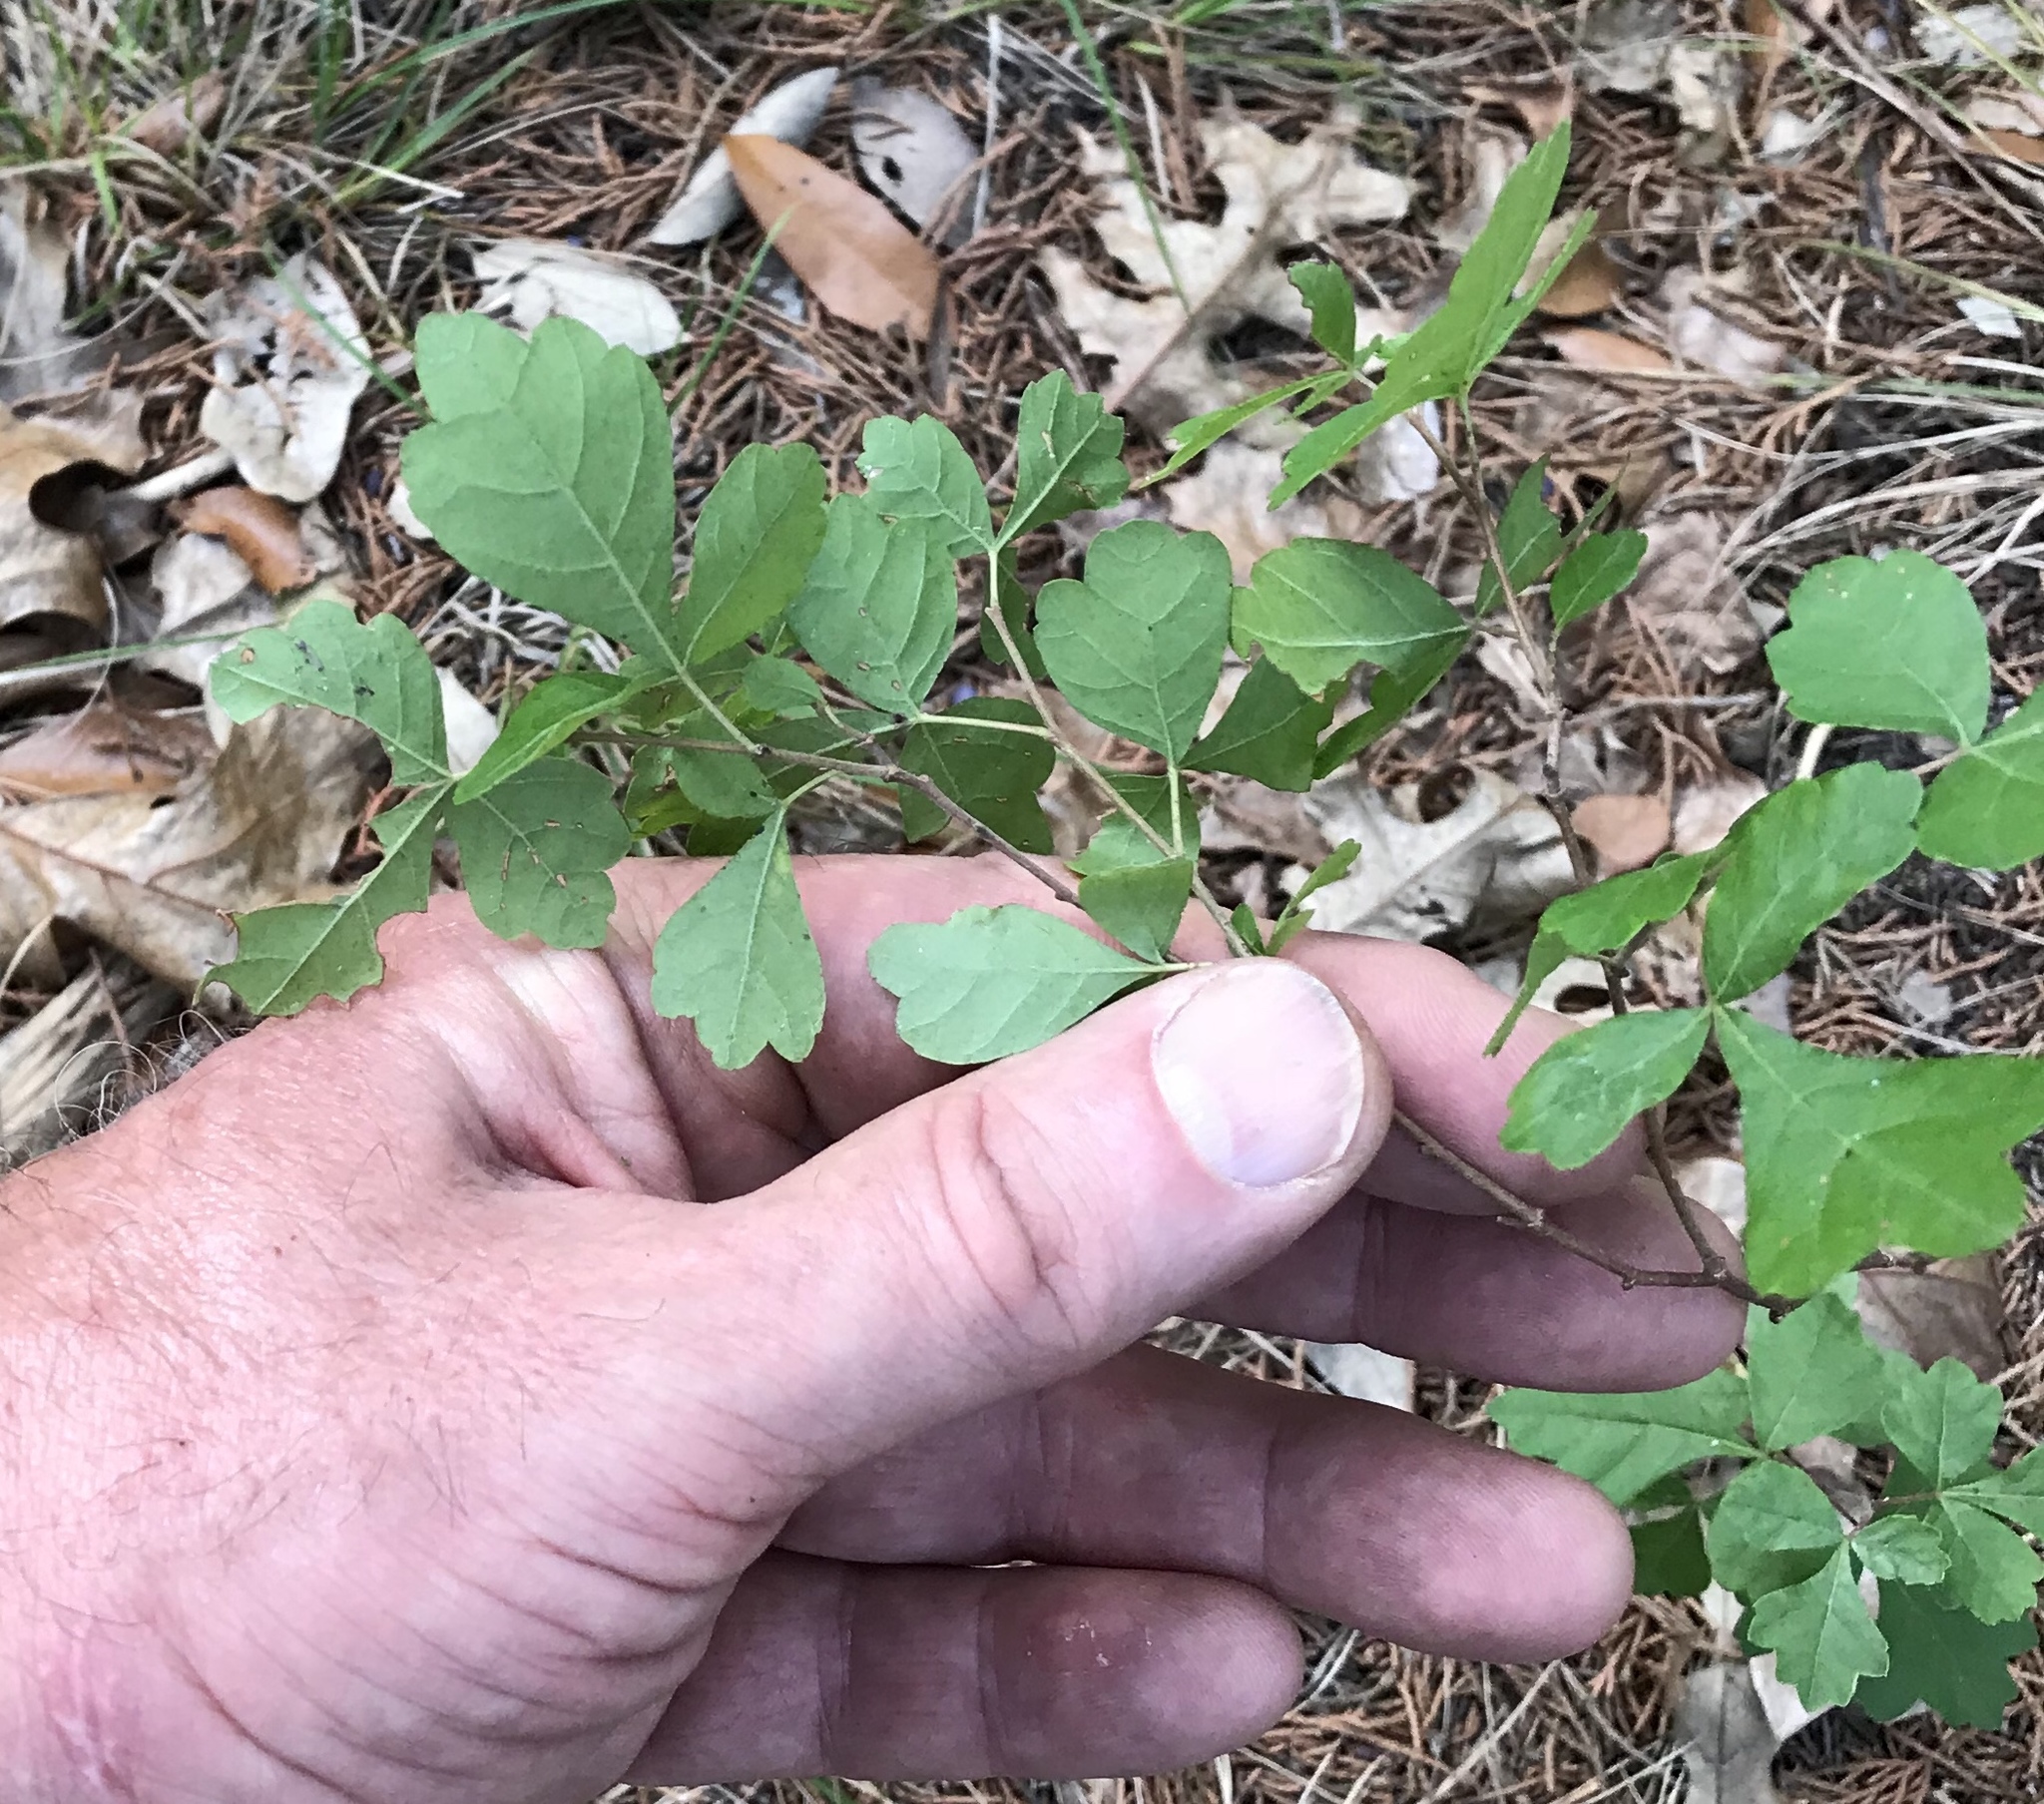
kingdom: Plantae
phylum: Tracheophyta
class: Magnoliopsida
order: Sapindales
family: Anacardiaceae
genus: Rhus
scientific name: Rhus aromatica
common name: Aromatic sumac
